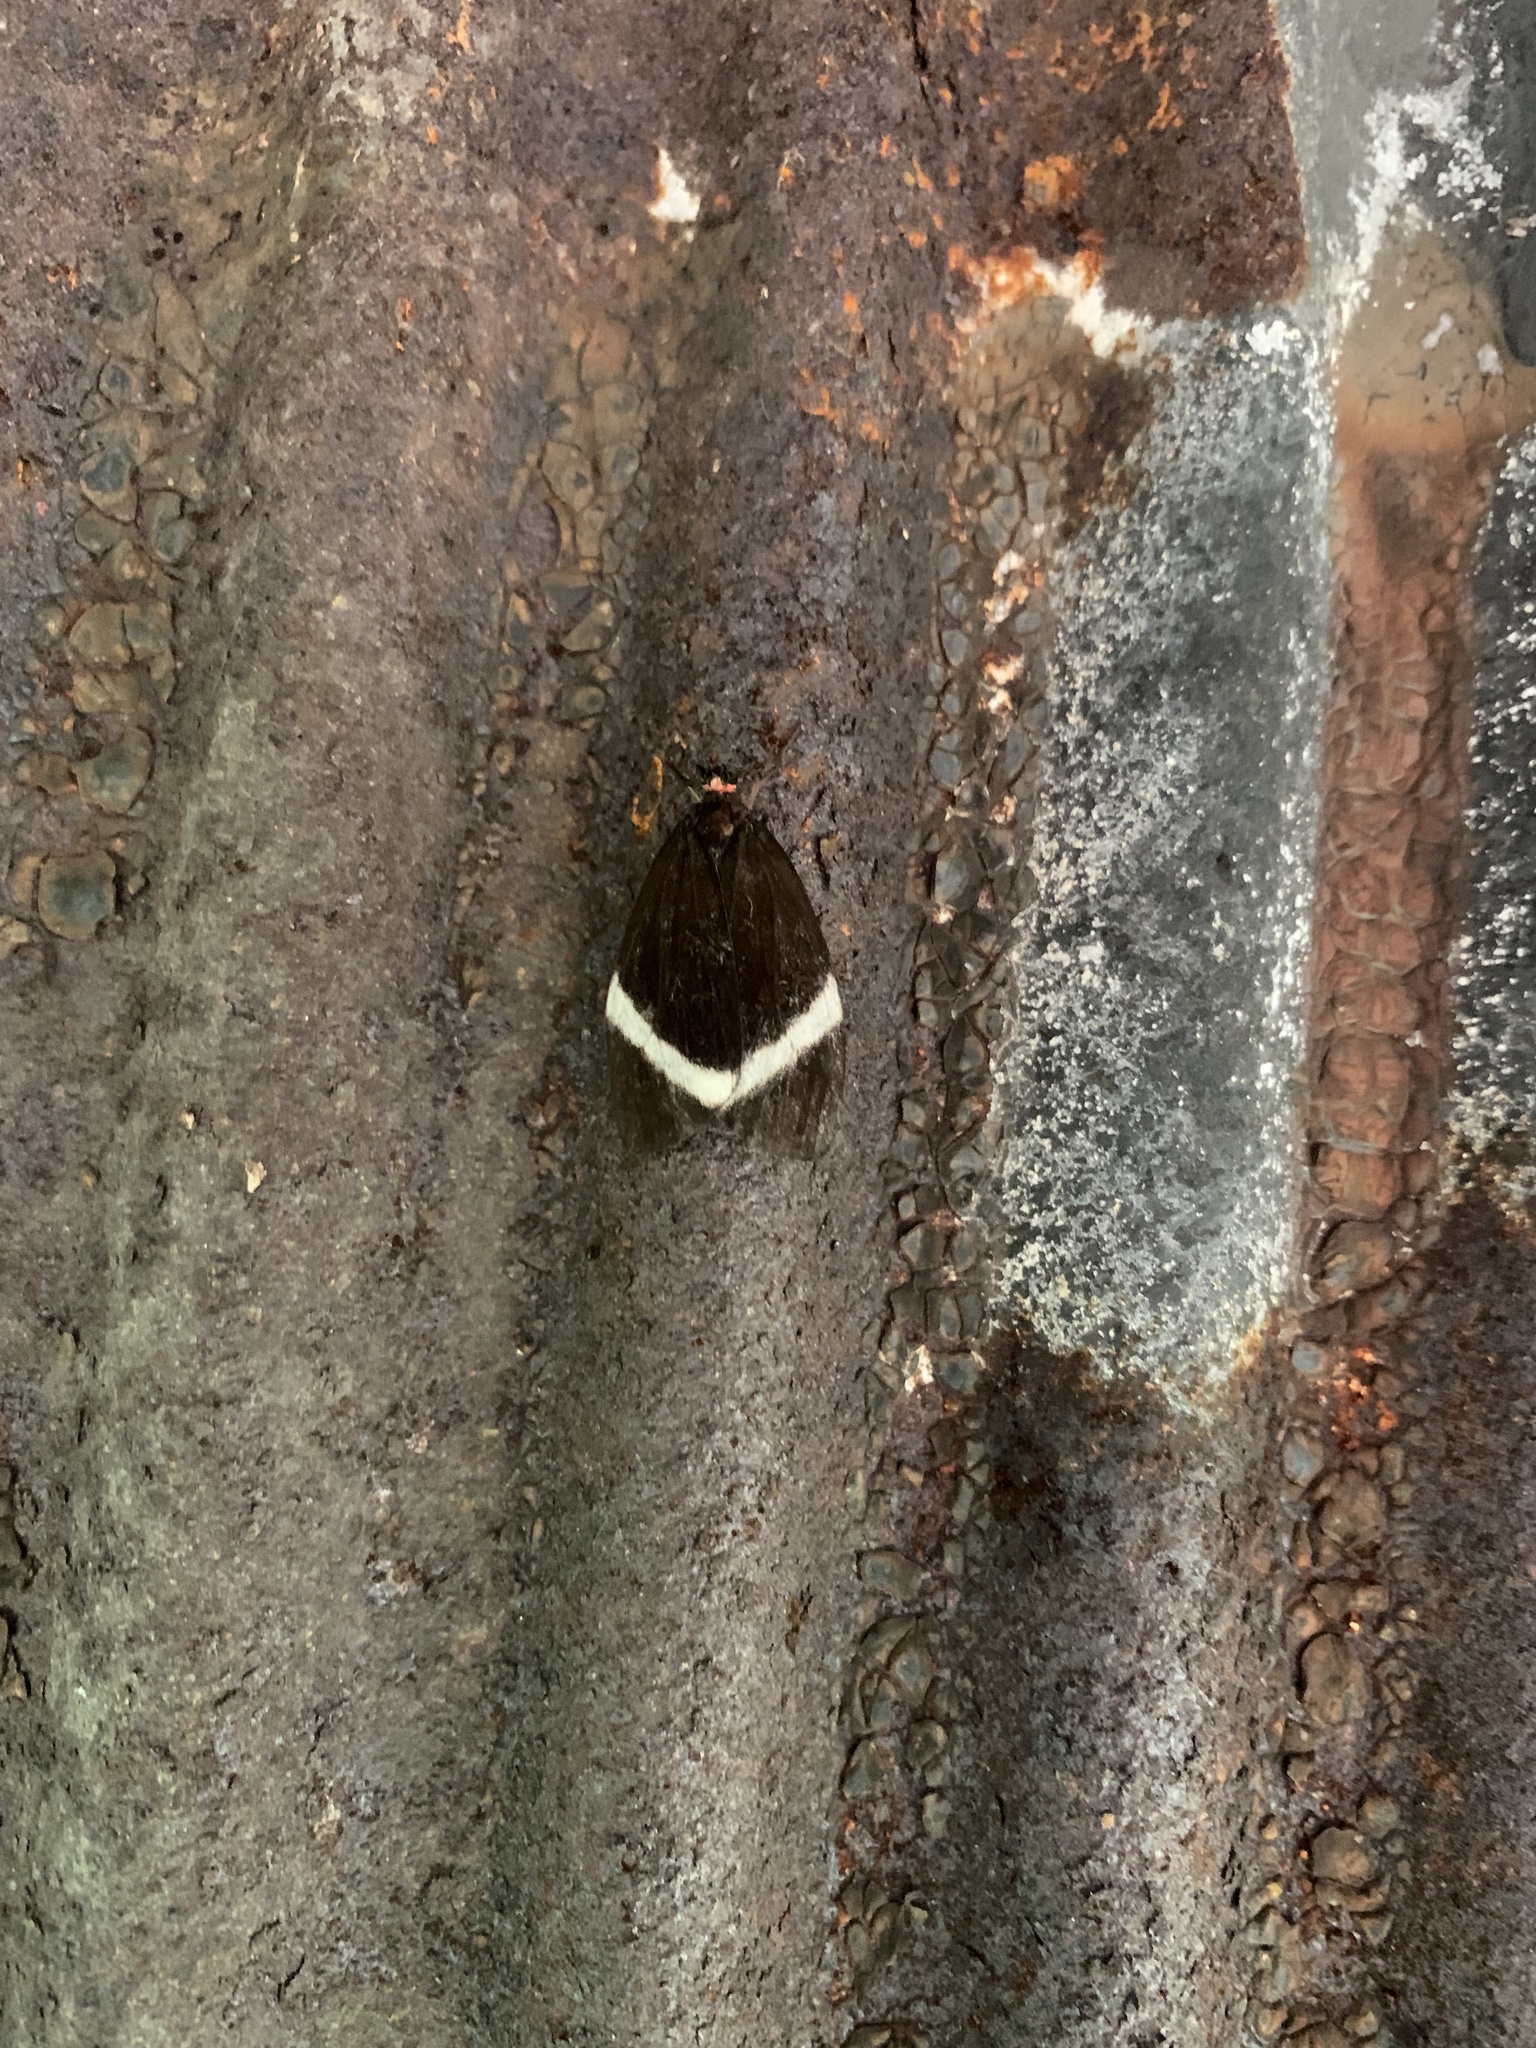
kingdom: Animalia
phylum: Arthropoda
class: Insecta
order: Lepidoptera
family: Zygaenidae
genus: Pidorus
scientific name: Pidorus glaucopis
